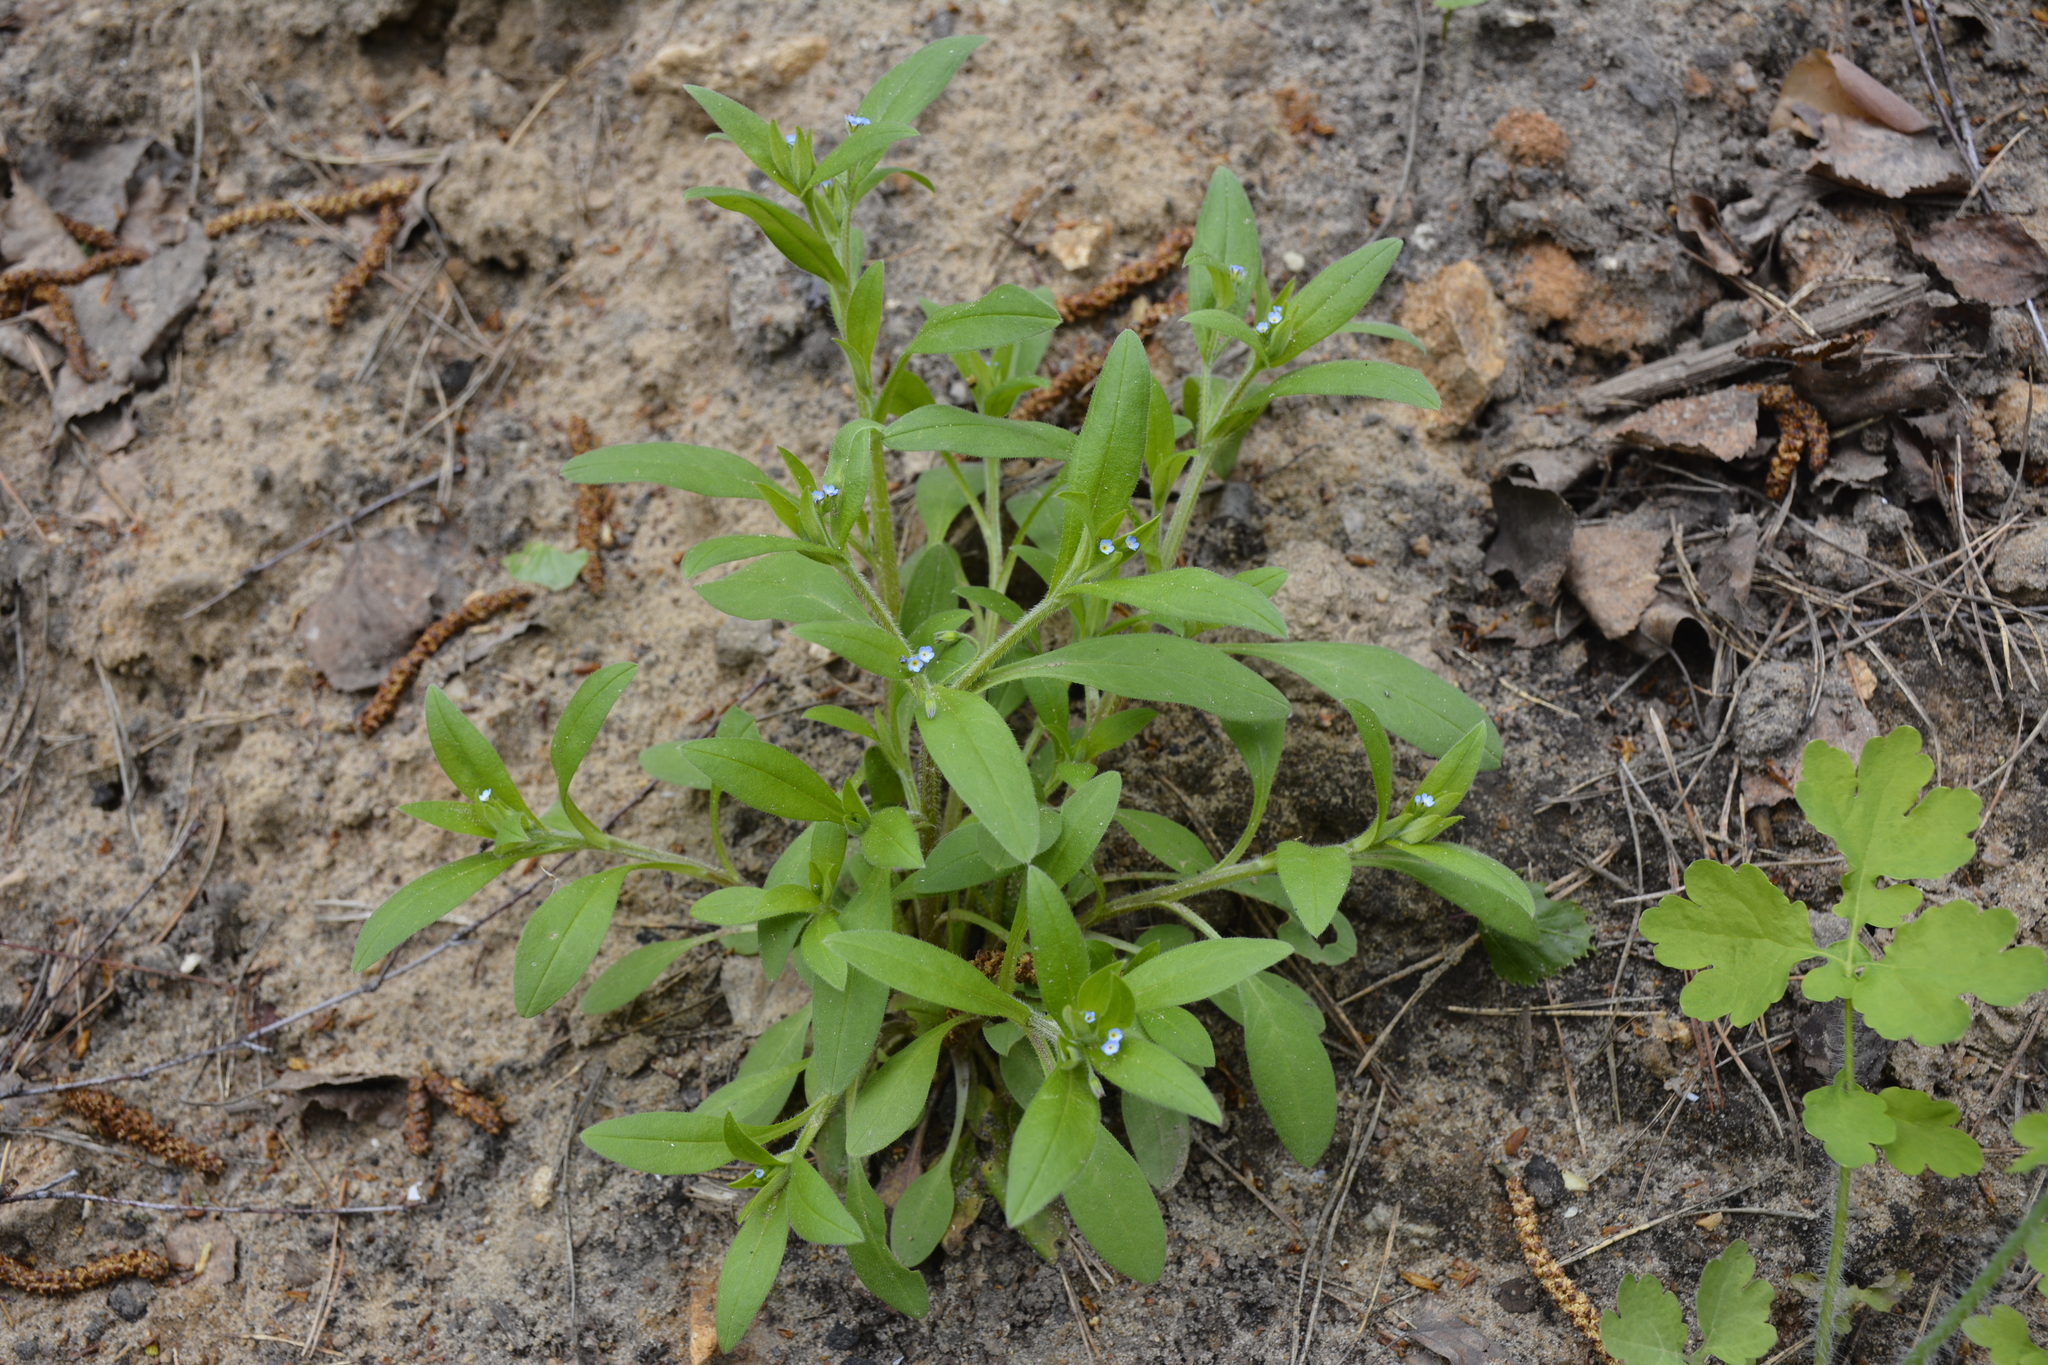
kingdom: Plantae
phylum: Tracheophyta
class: Magnoliopsida
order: Boraginales
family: Boraginaceae
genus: Myosotis
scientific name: Myosotis sparsiflora
